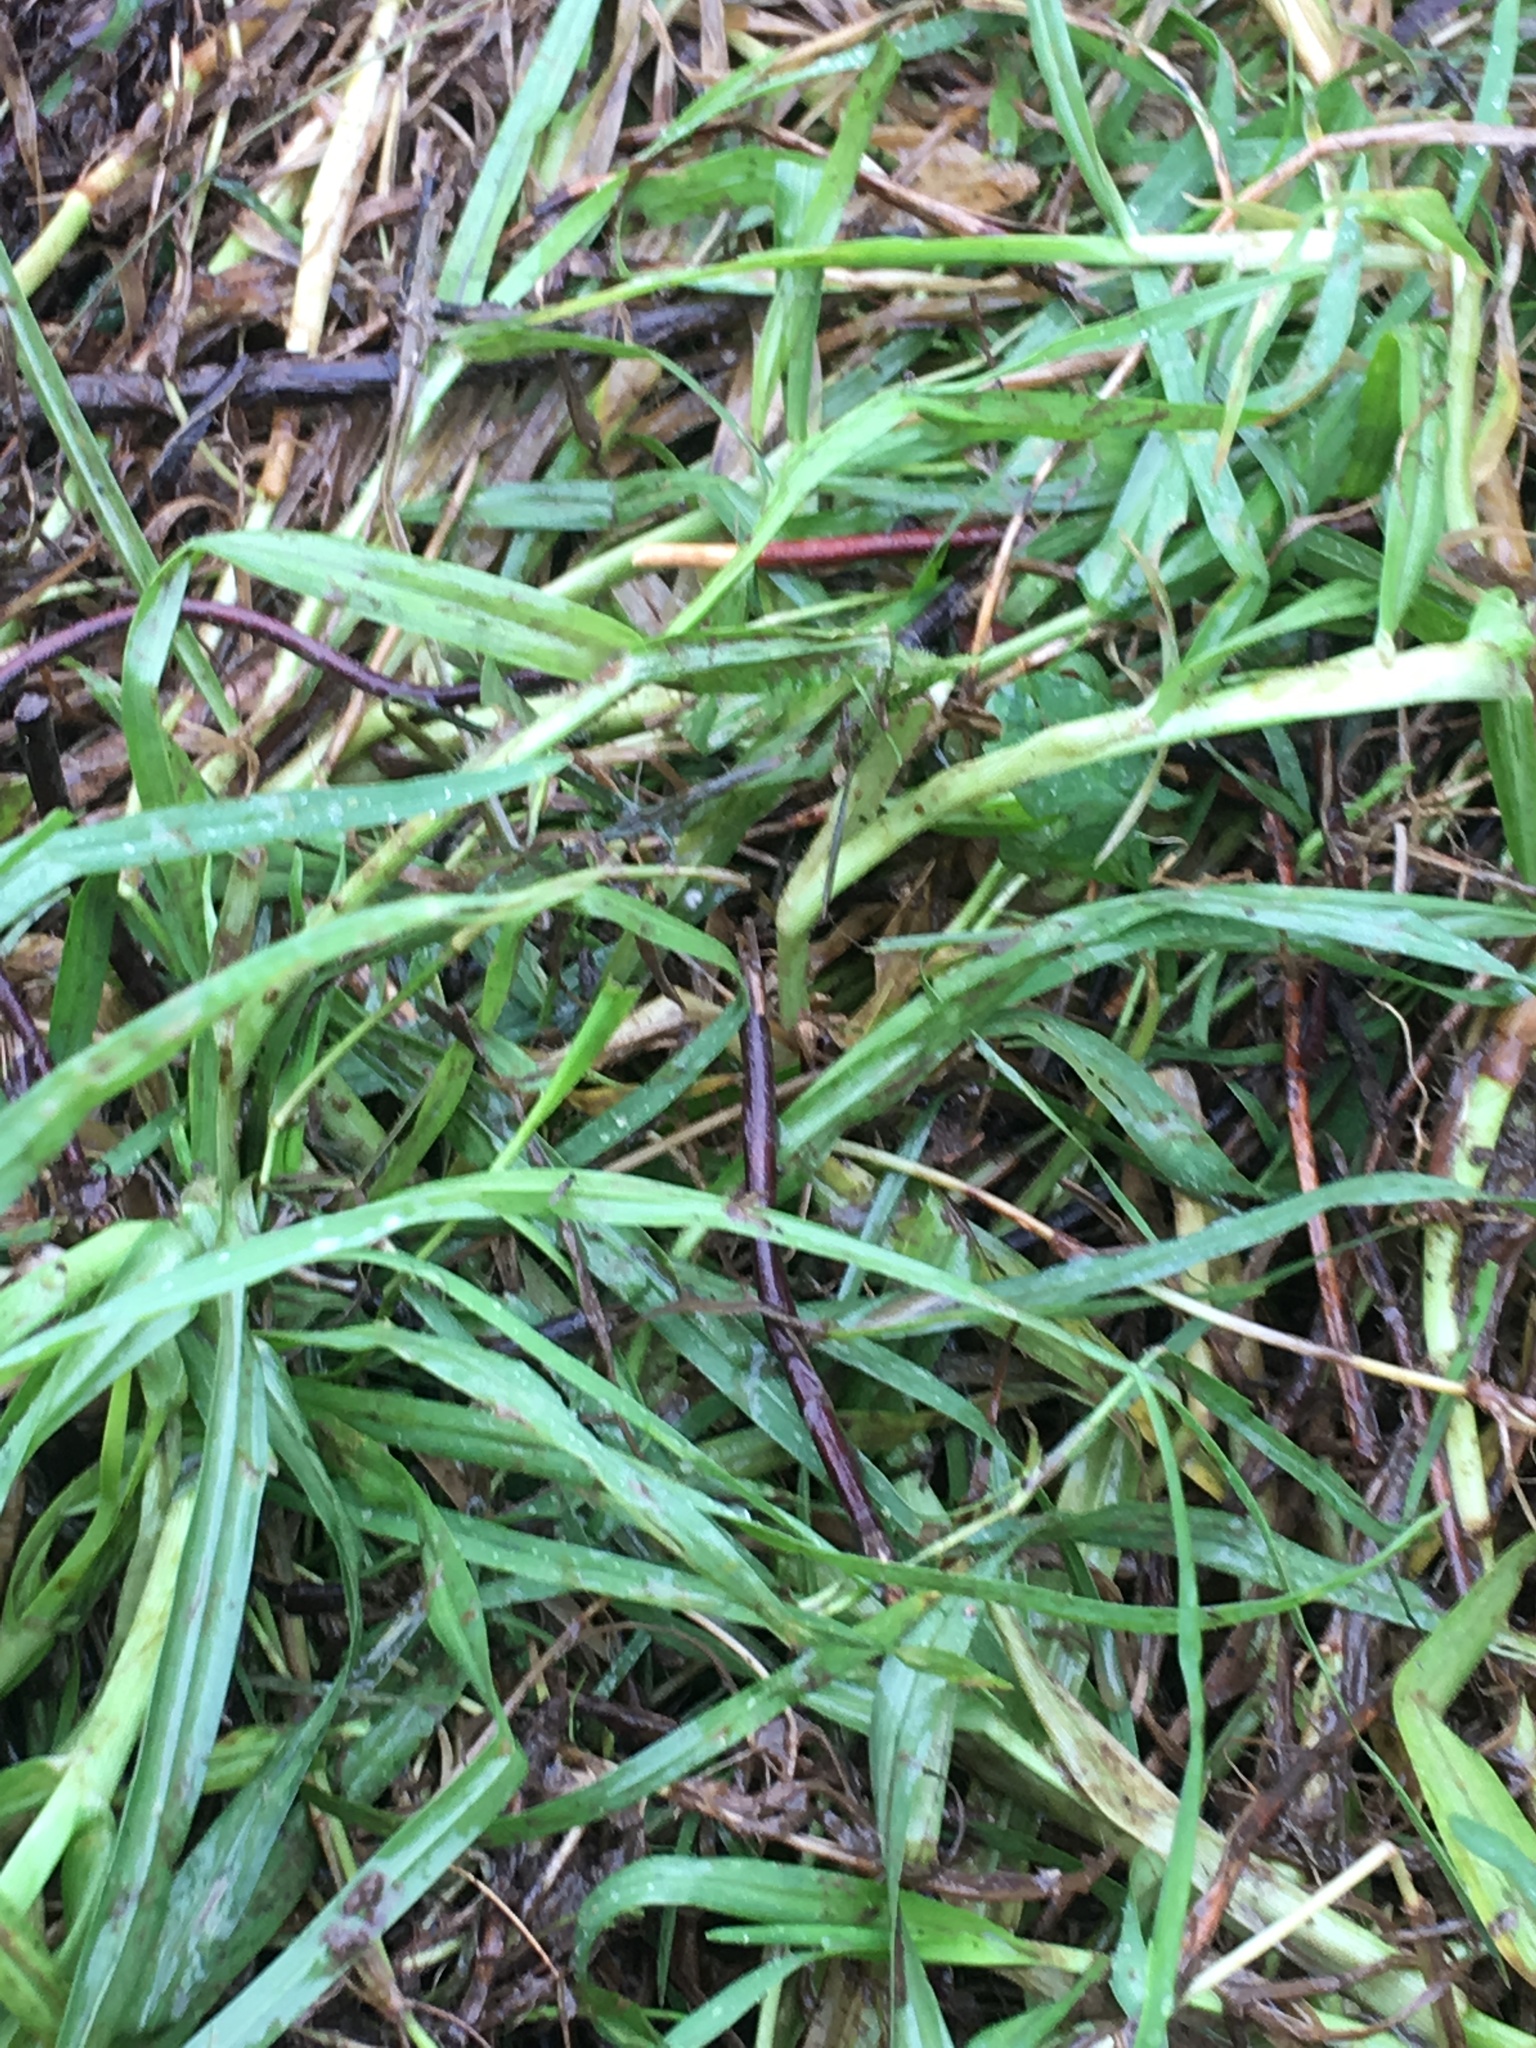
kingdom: Plantae
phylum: Tracheophyta
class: Liliopsida
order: Poales
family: Poaceae
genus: Cenchrus
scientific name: Cenchrus clandestinus
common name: Kikuyugrass
